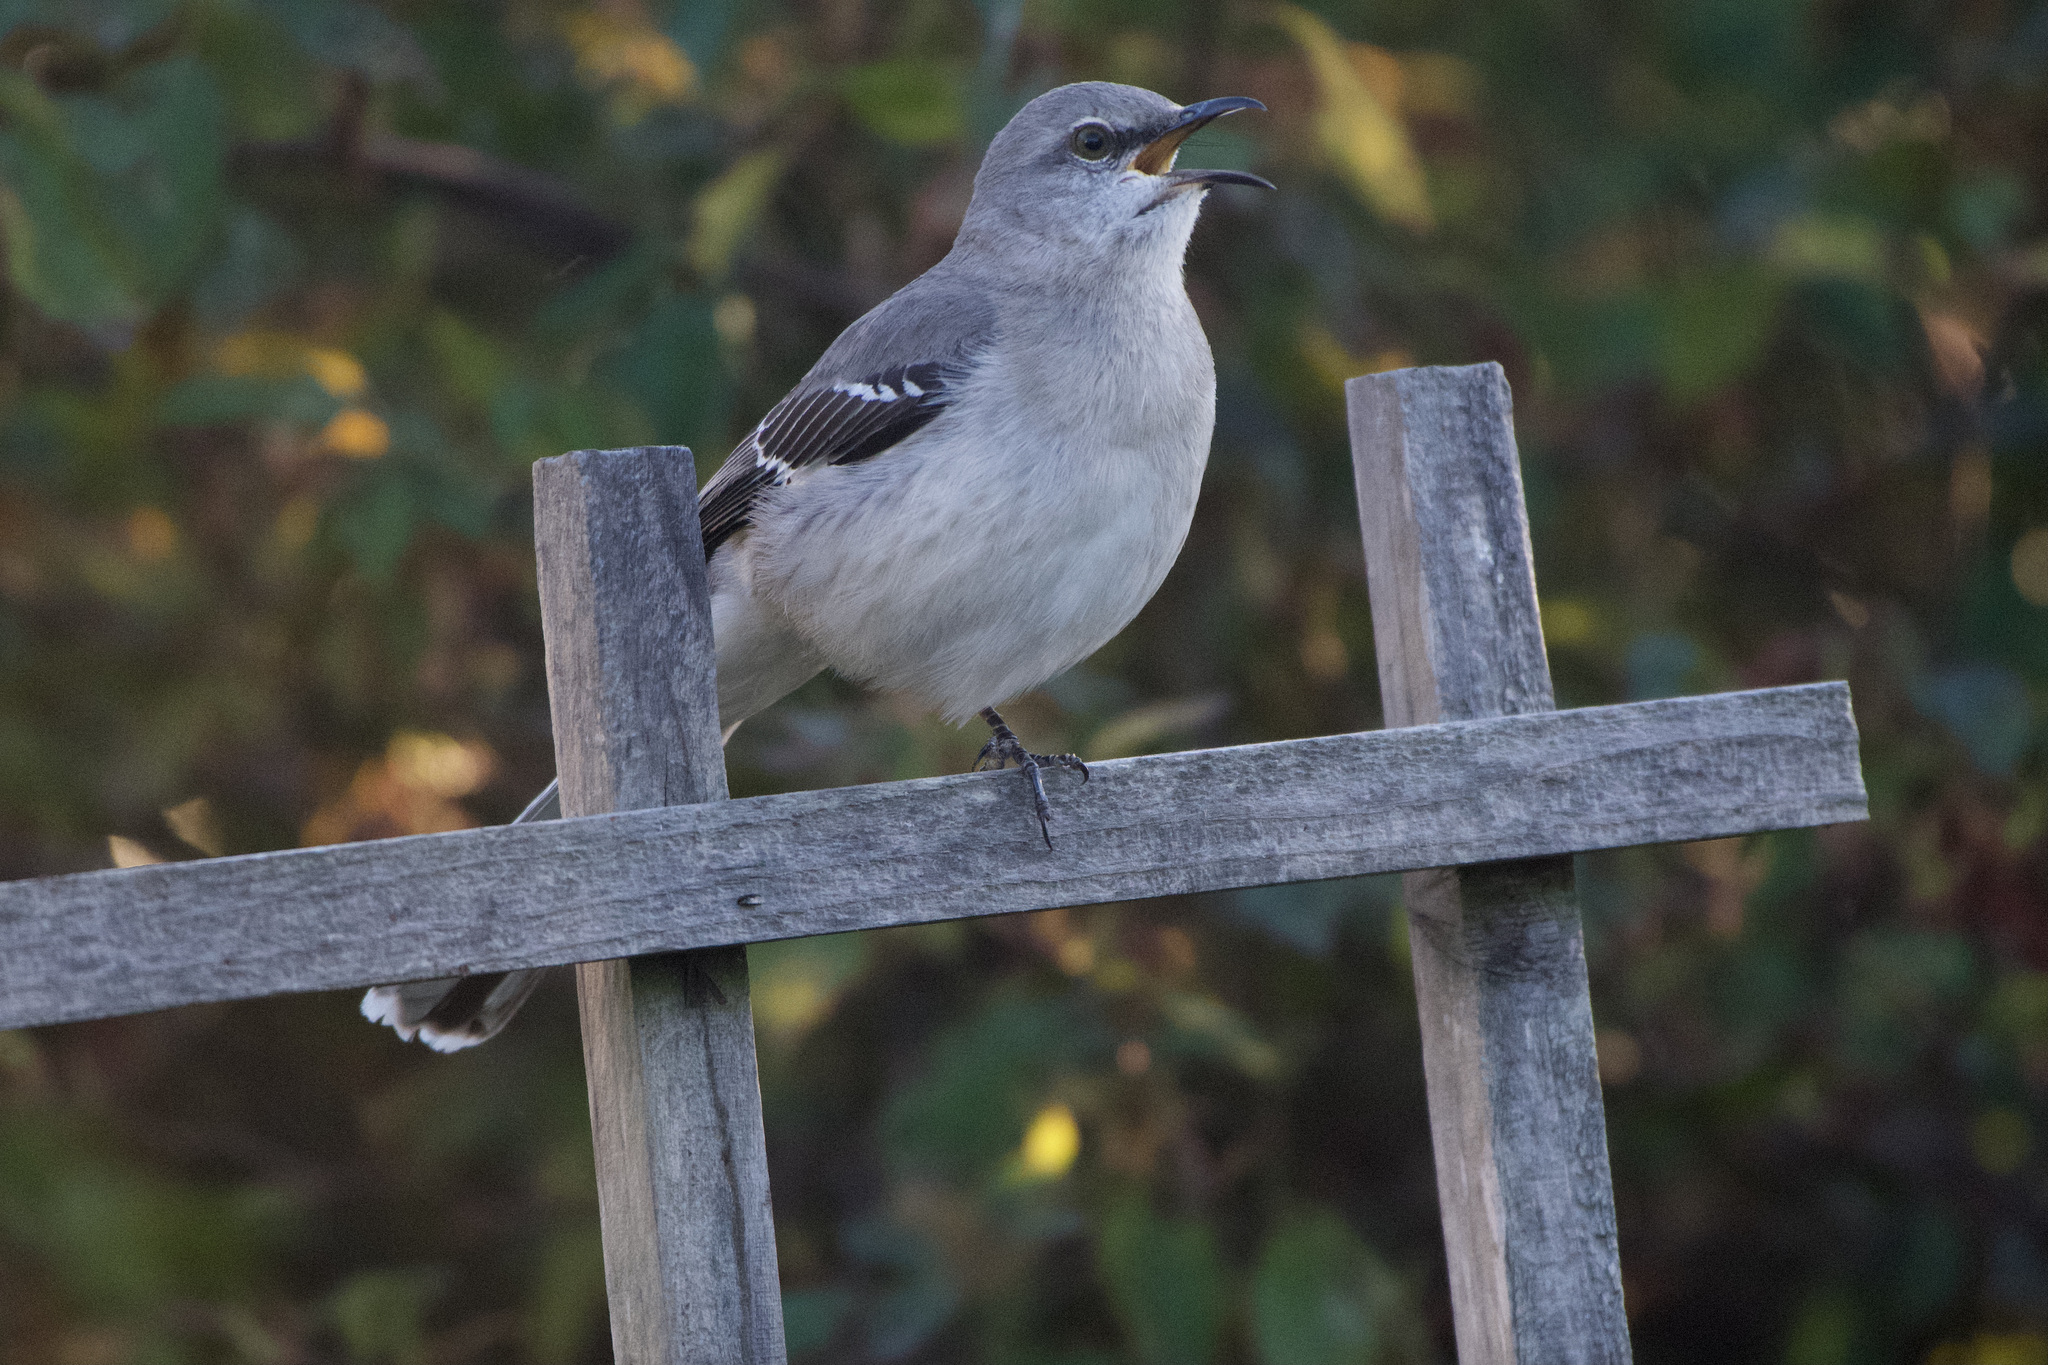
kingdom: Animalia
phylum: Chordata
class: Aves
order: Passeriformes
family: Mimidae
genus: Mimus
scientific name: Mimus polyglottos
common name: Northern mockingbird
